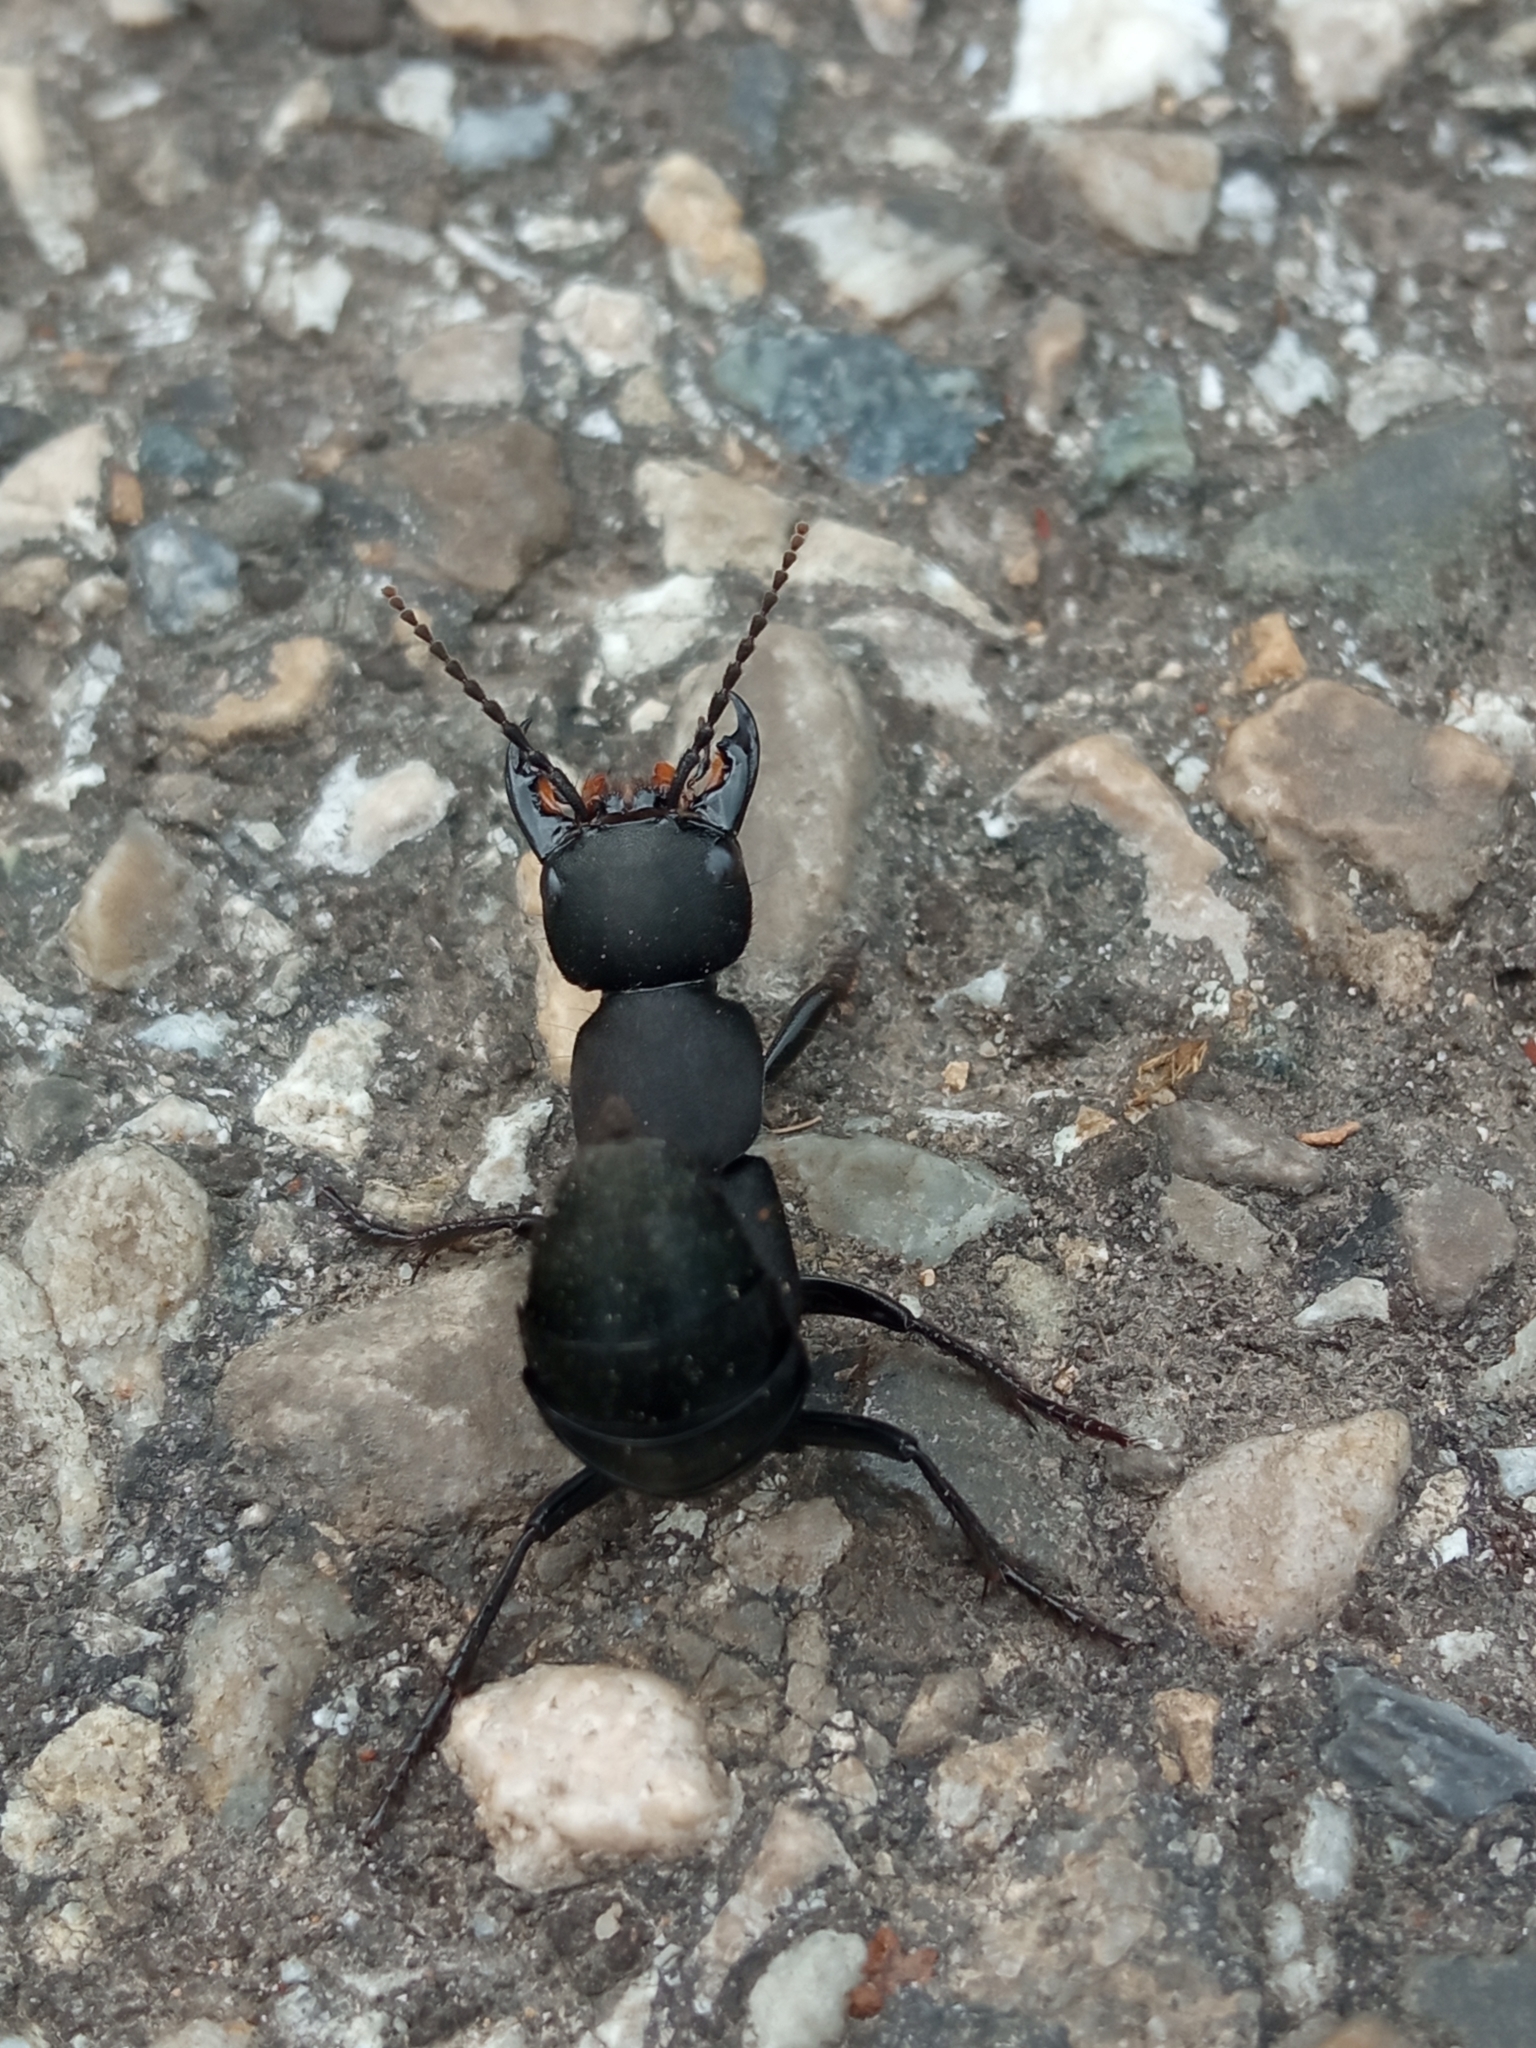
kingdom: Animalia
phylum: Arthropoda
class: Insecta
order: Coleoptera
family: Staphylinidae
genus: Ocypus
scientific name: Ocypus olens
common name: Devil's coach-horse
